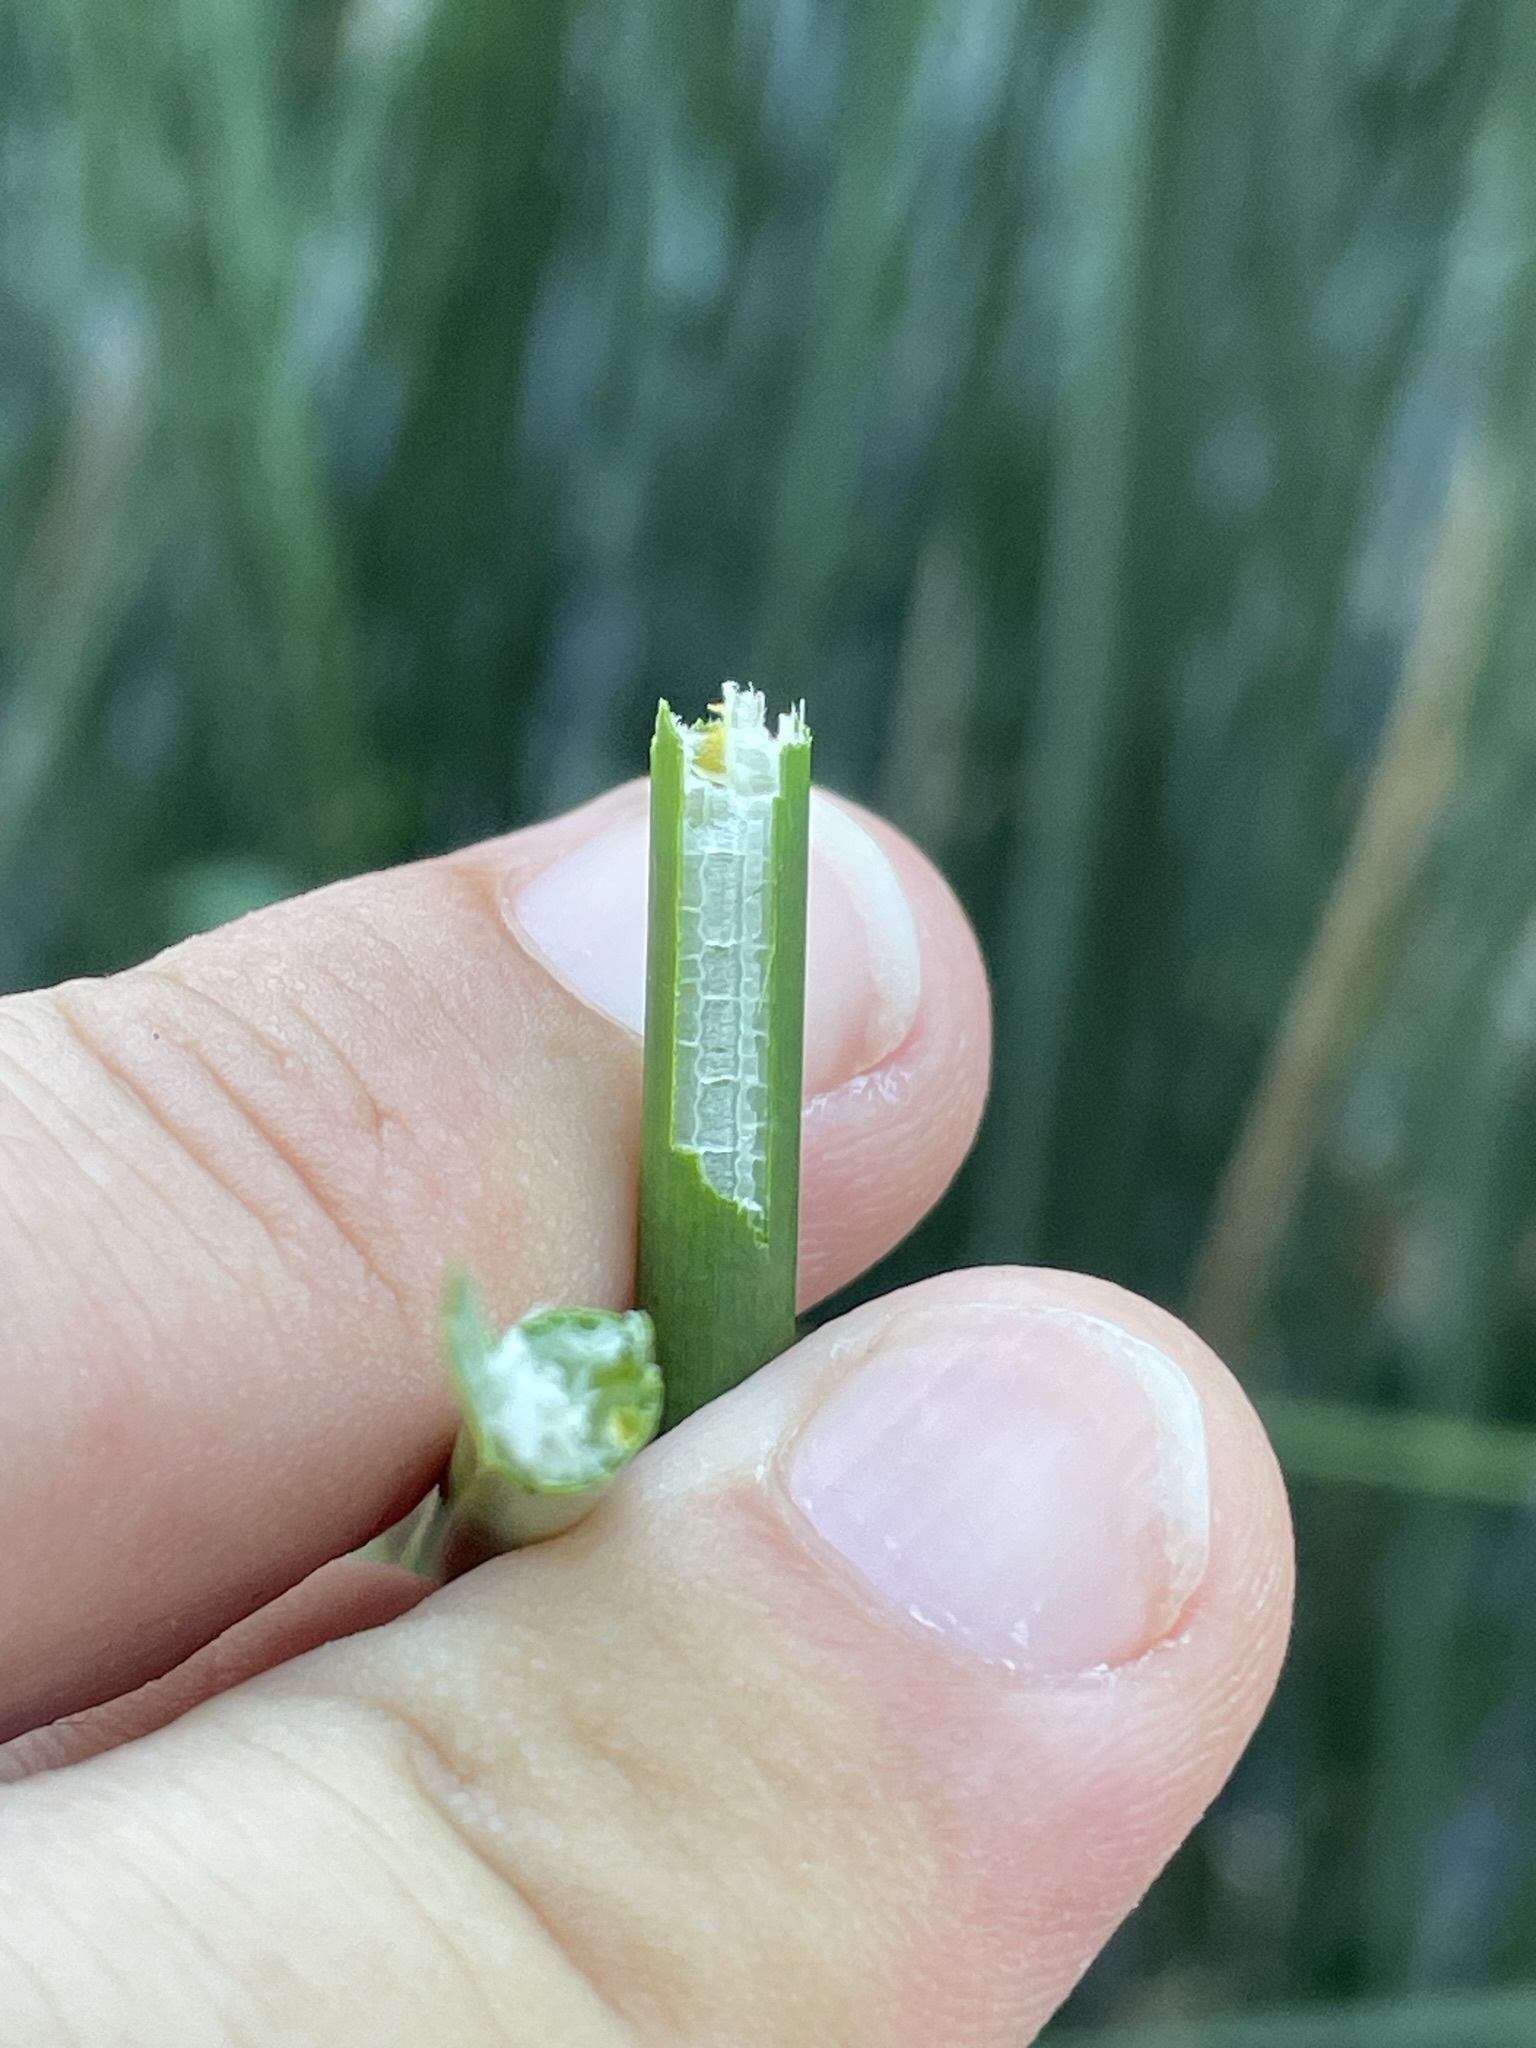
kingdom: Plantae
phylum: Tracheophyta
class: Liliopsida
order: Poales
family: Cyperaceae
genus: Schoenoplectus
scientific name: Schoenoplectus lacustris
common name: Common club-rush
